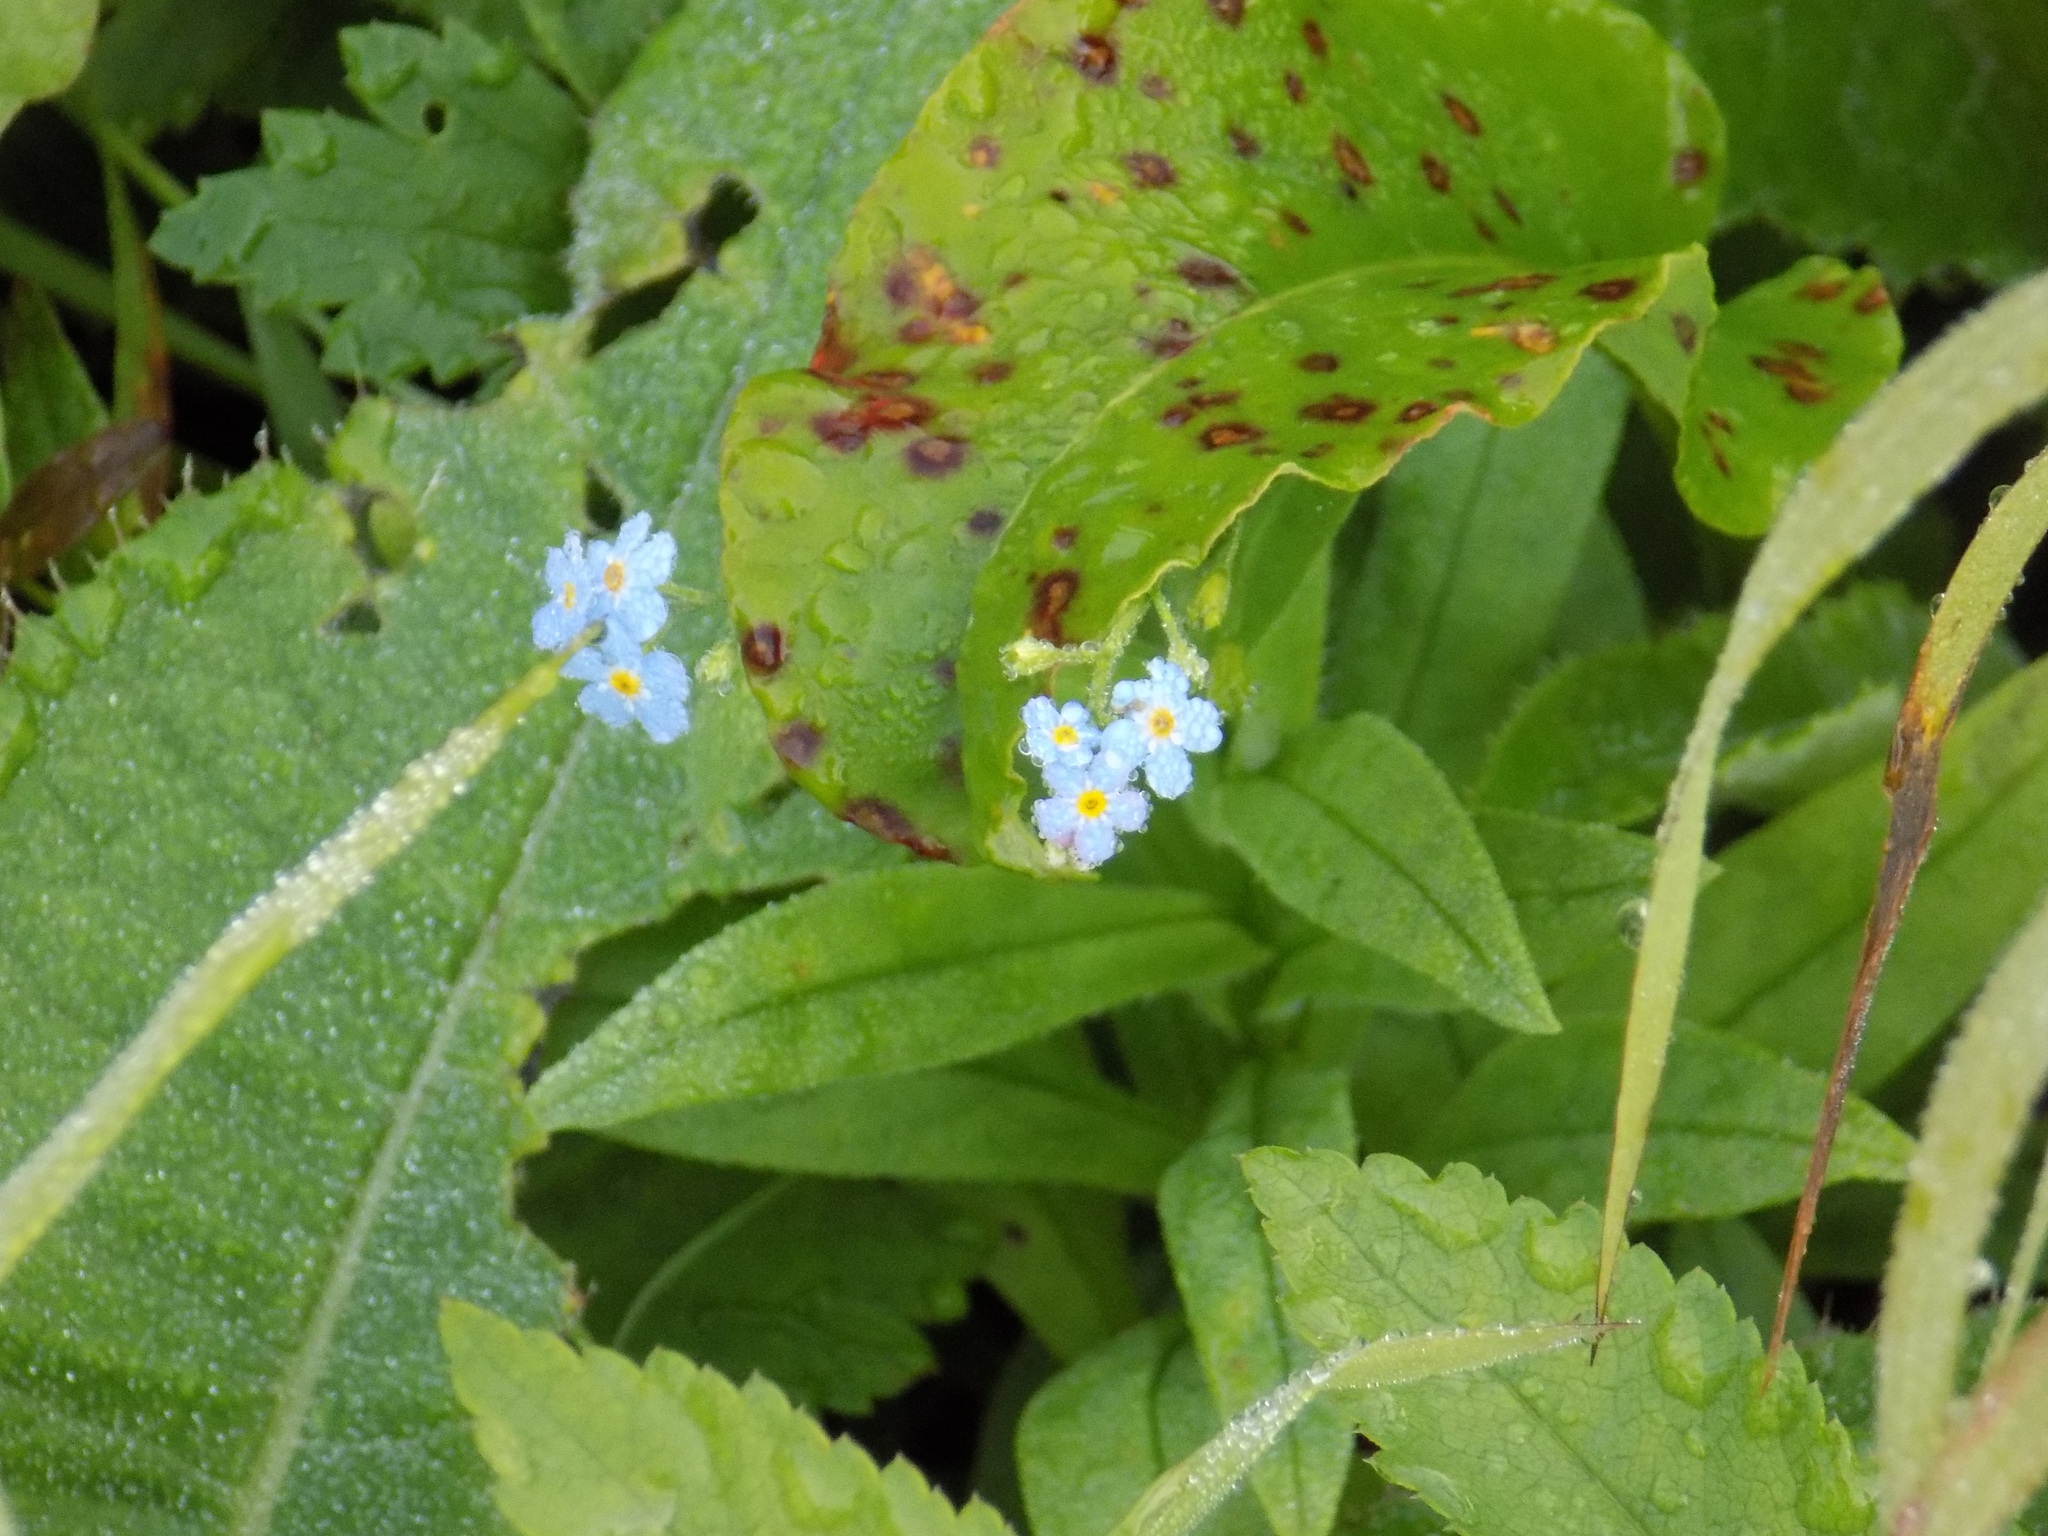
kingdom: Plantae
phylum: Tracheophyta
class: Magnoliopsida
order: Boraginales
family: Boraginaceae
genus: Myosotis
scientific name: Myosotis scorpioides
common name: Water forget-me-not
